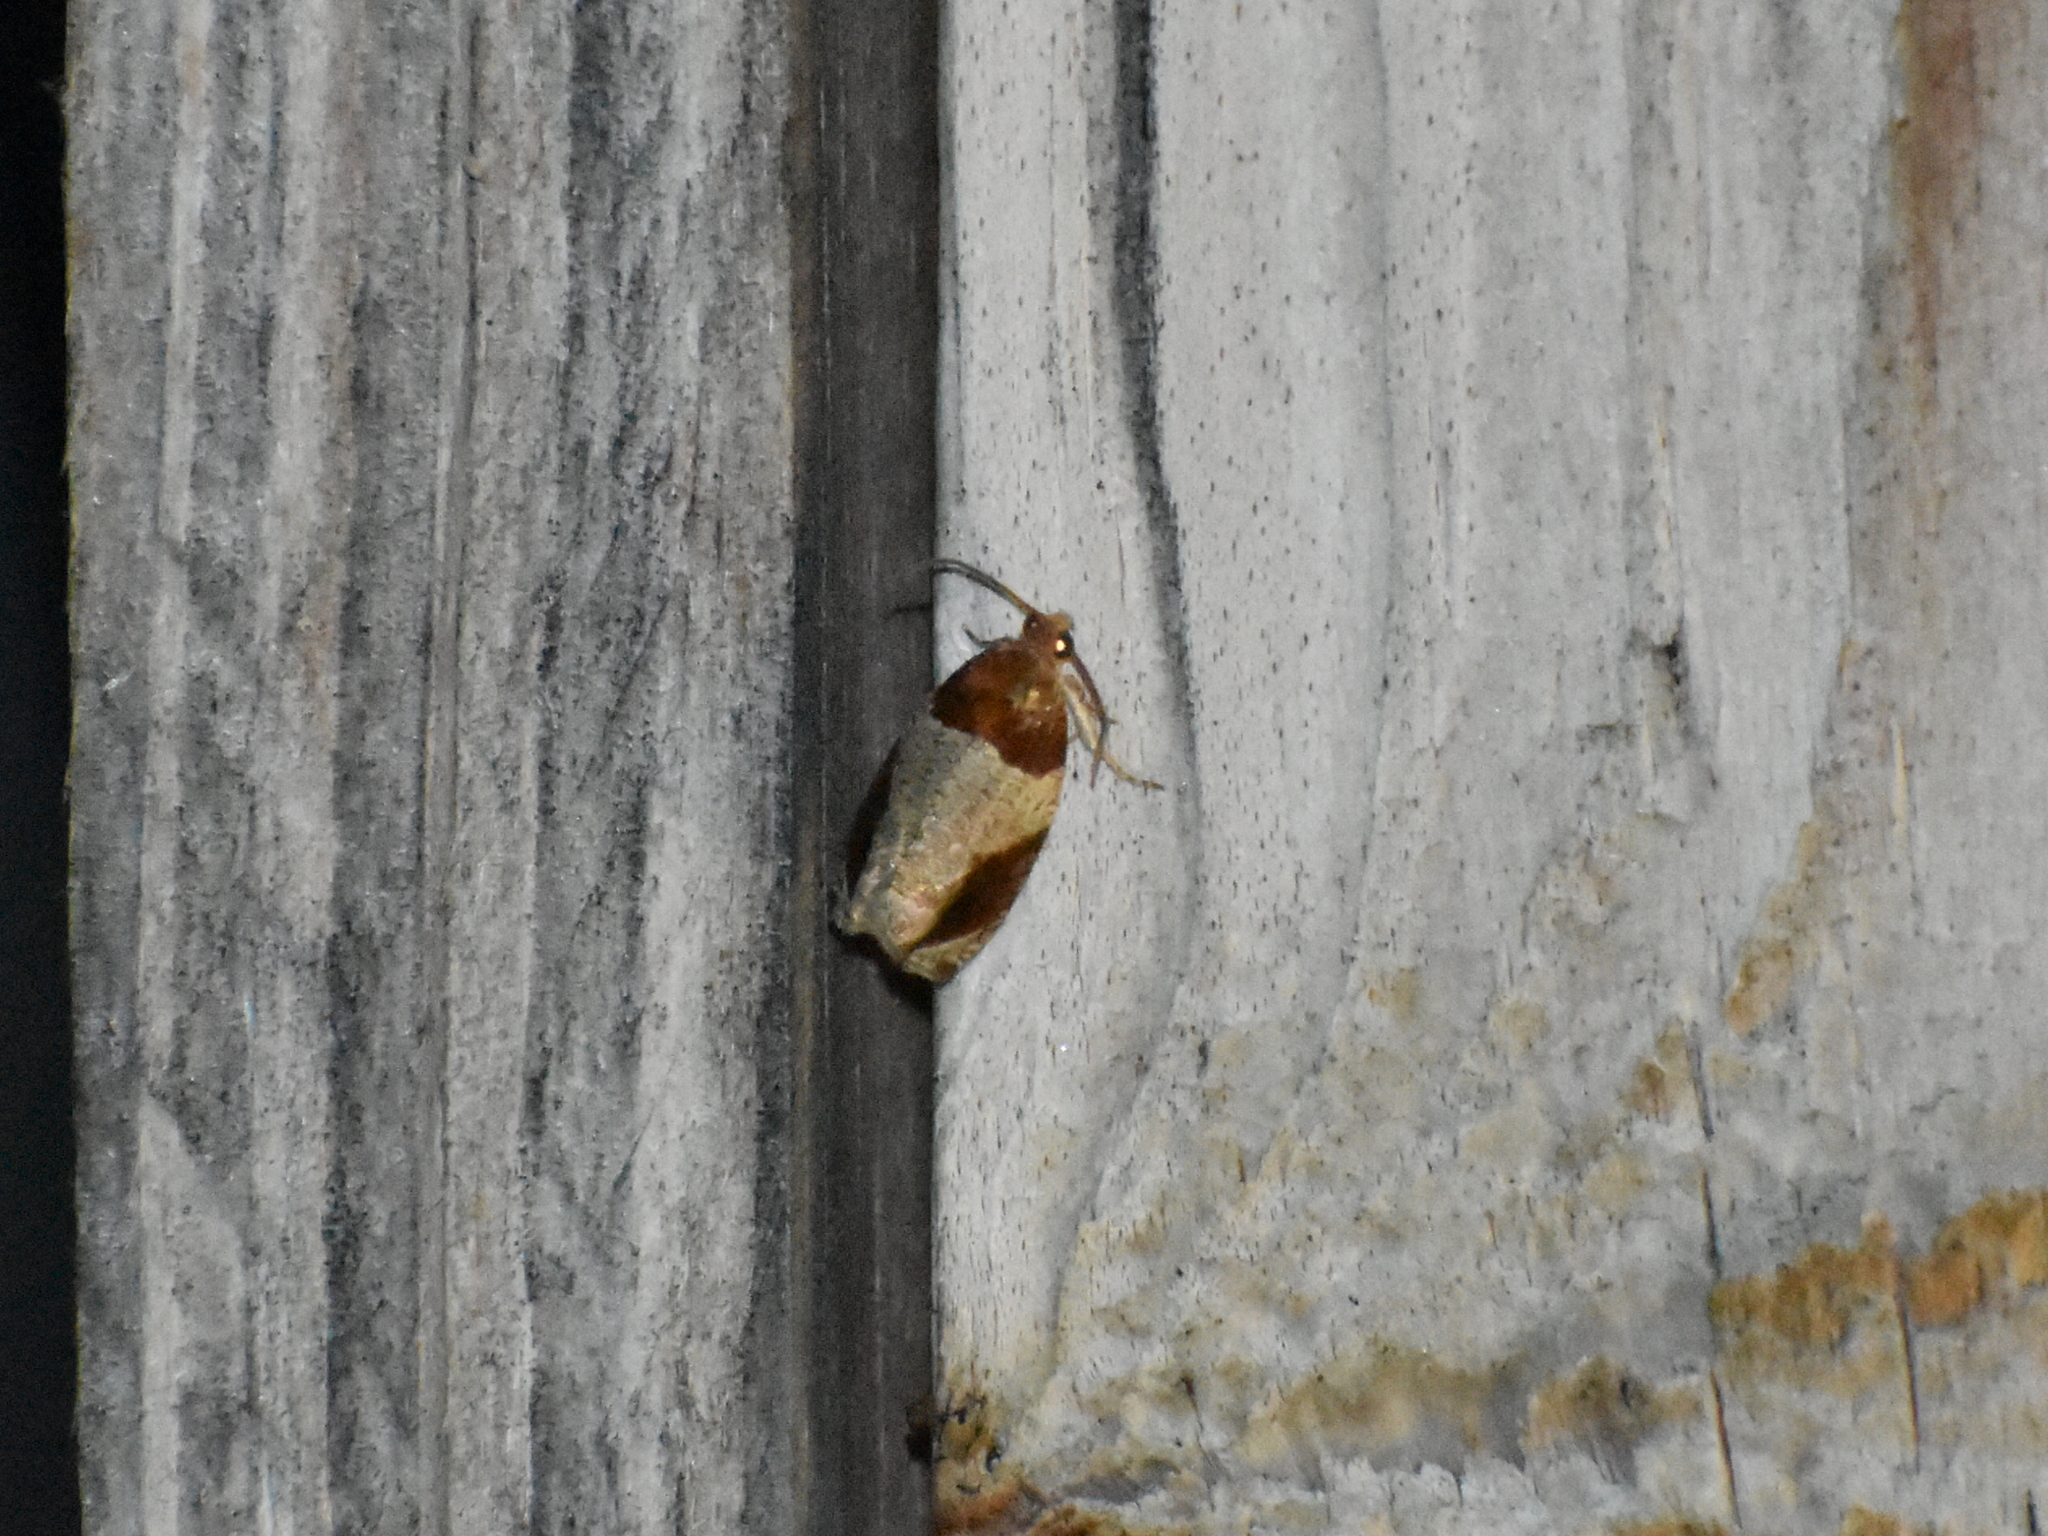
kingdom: Animalia
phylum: Arthropoda
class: Insecta
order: Lepidoptera
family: Tortricidae
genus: Olethreutes
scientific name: Olethreutes ferriferana
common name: Hydrangea leaftier moth
